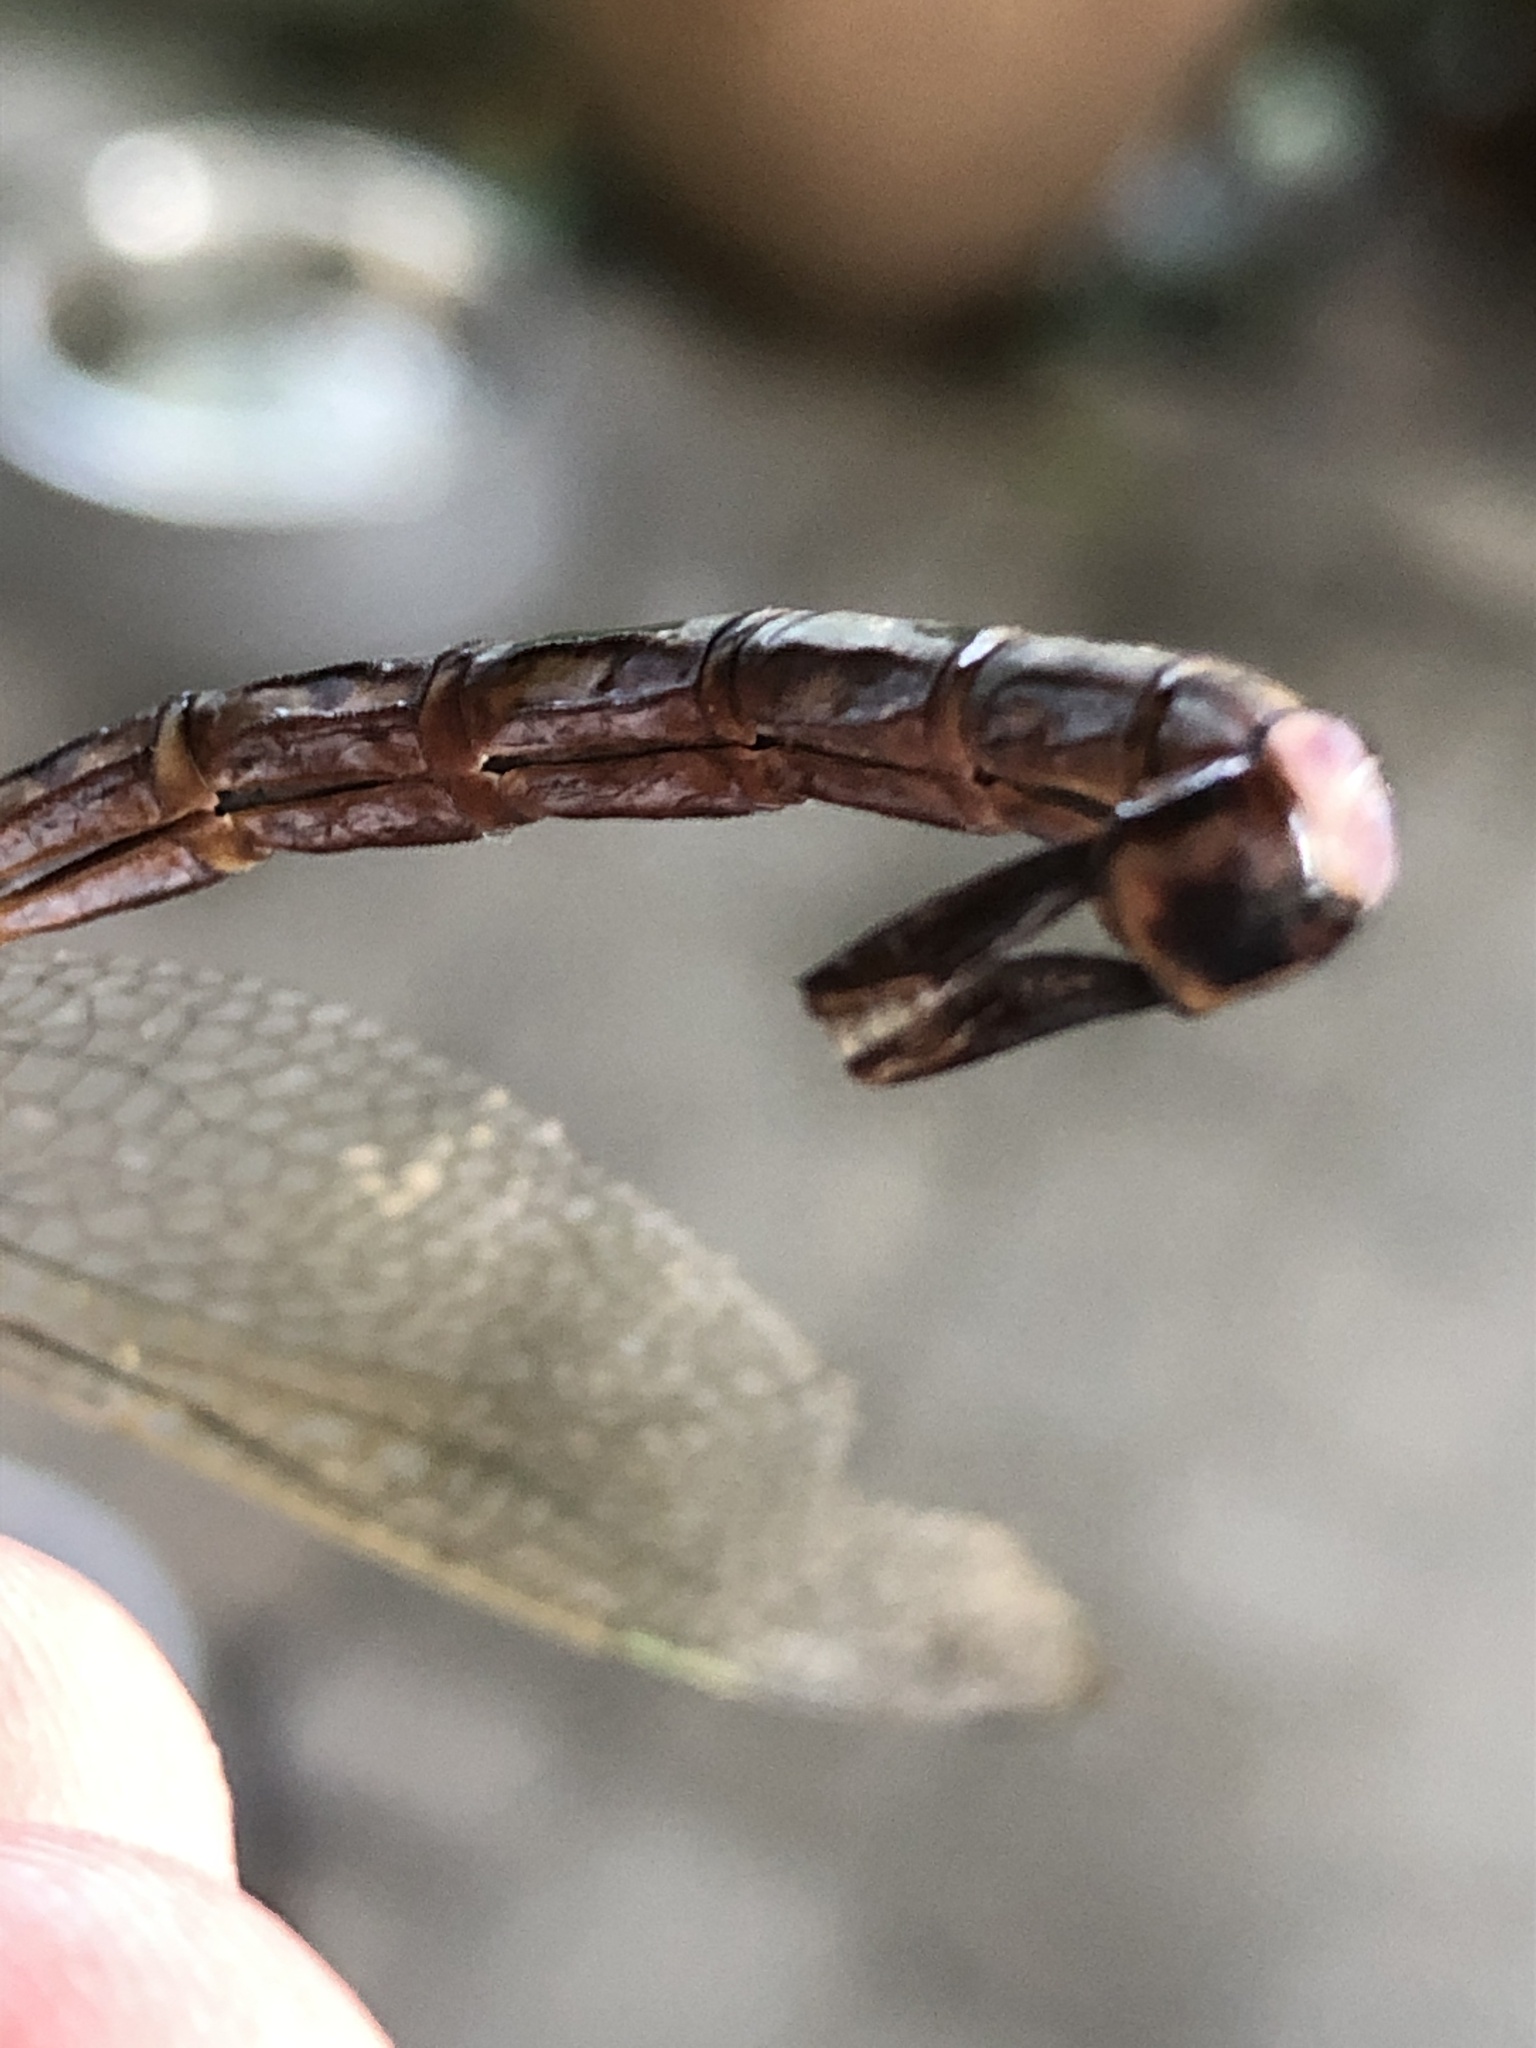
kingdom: Animalia
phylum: Arthropoda
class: Insecta
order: Odonata
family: Aeshnidae
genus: Anax
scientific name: Anax parthenope
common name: Lesser emperor
